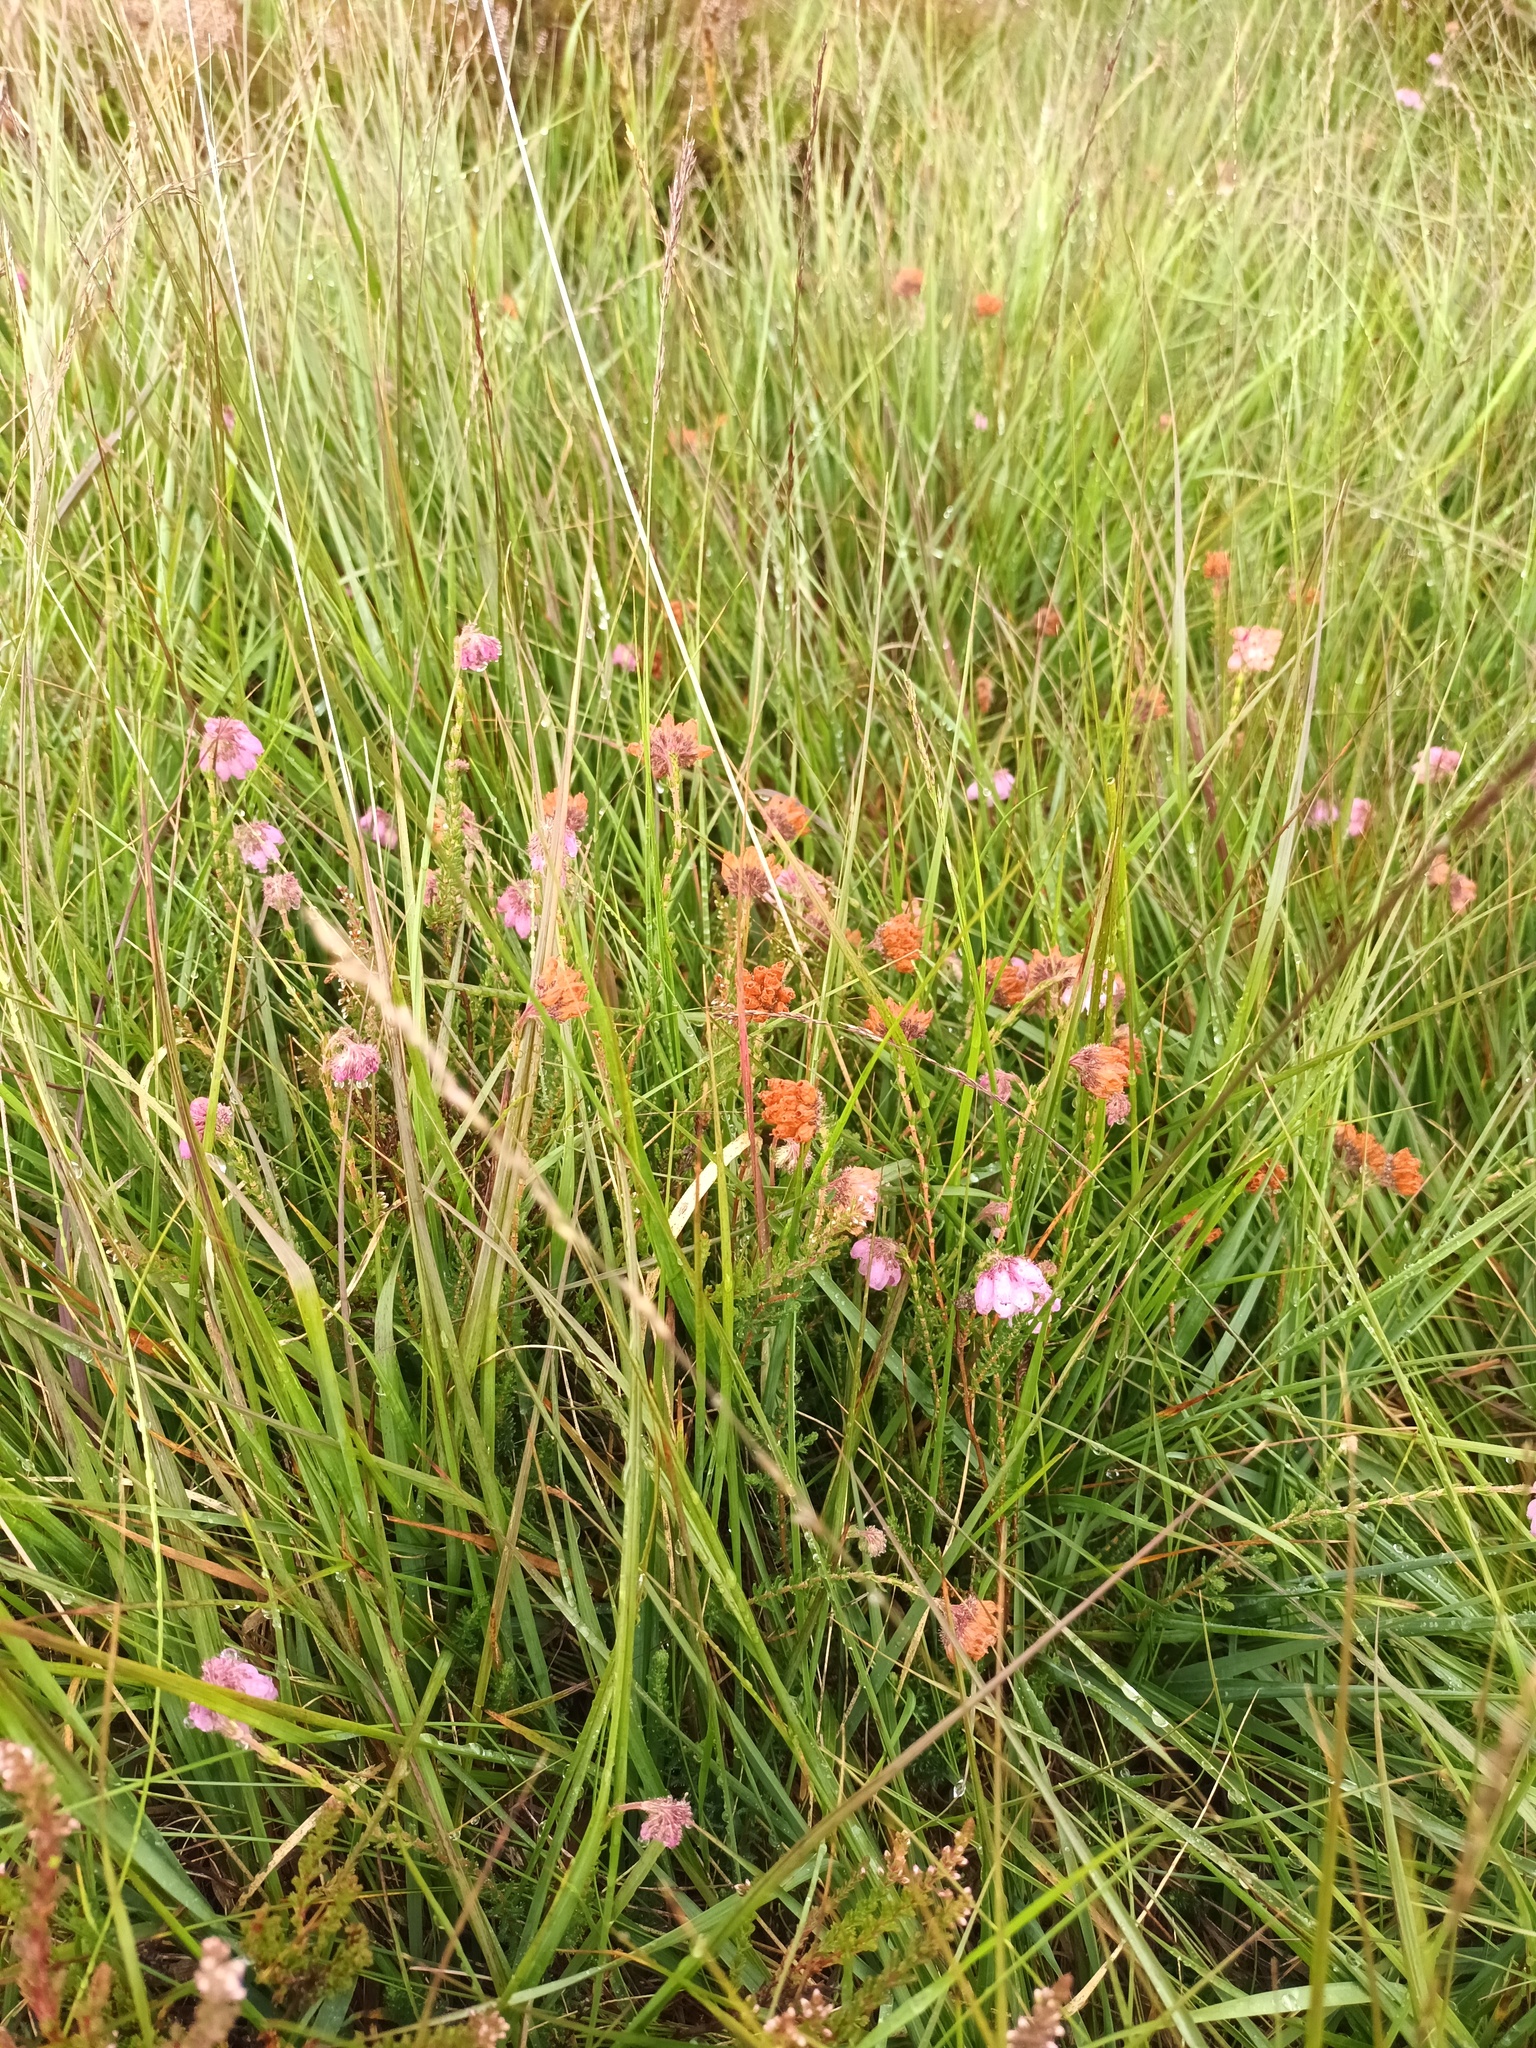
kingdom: Plantae
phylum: Tracheophyta
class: Magnoliopsida
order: Ericales
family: Ericaceae
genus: Erica
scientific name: Erica tetralix
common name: Cross-leaved heath
